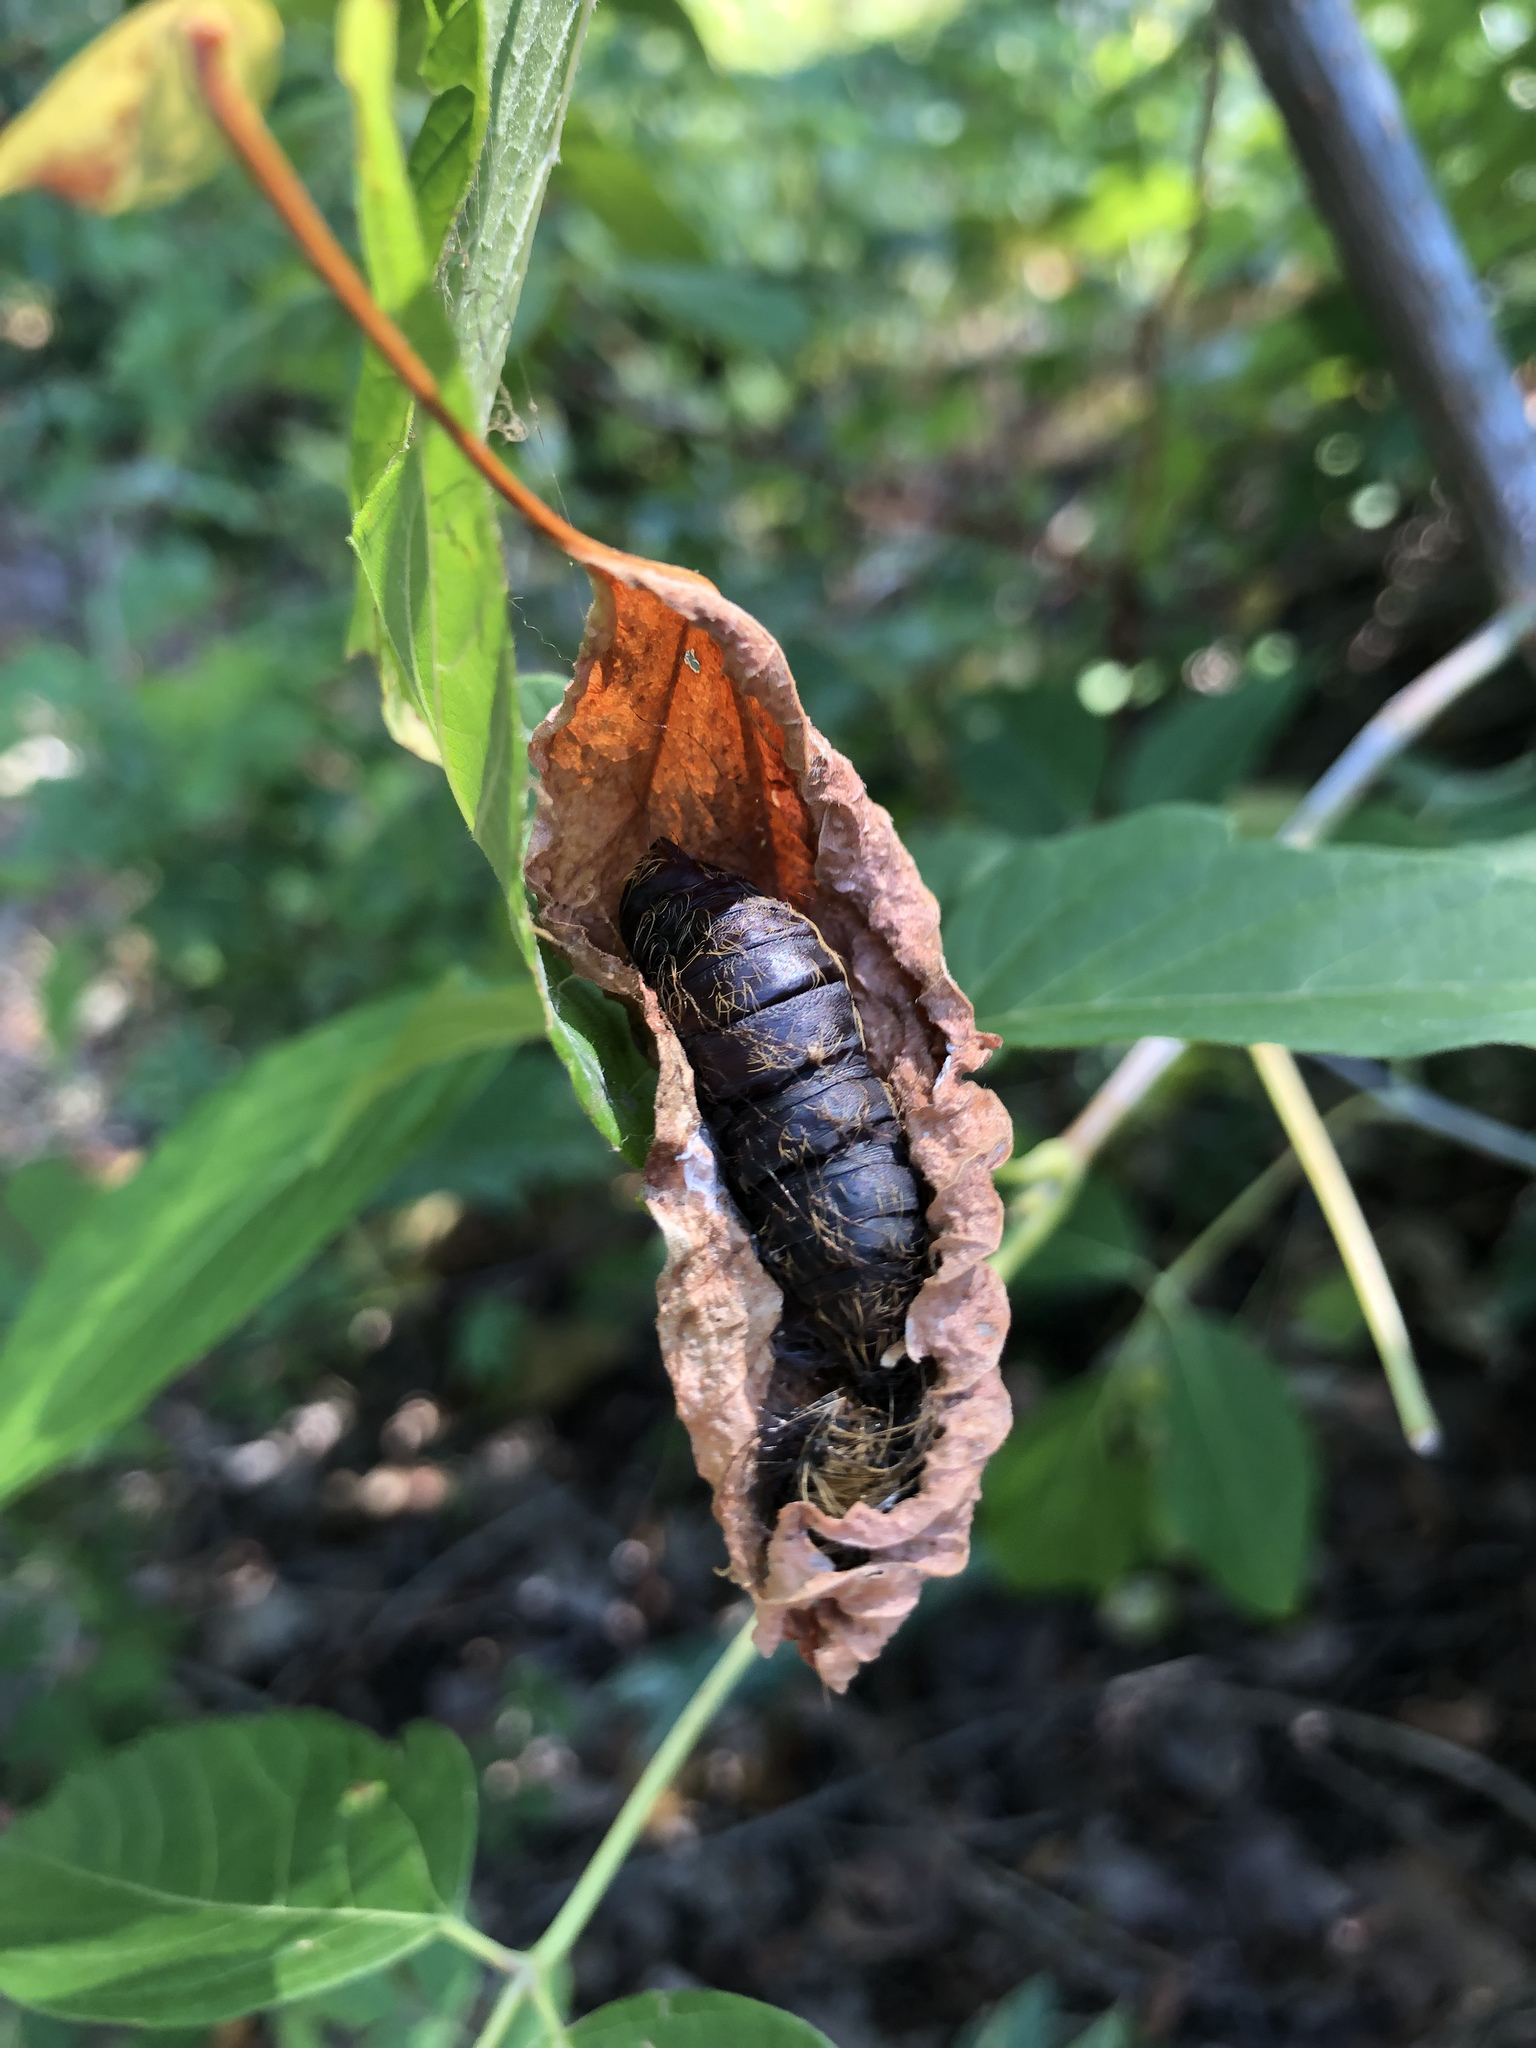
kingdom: Animalia
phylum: Arthropoda
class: Insecta
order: Lepidoptera
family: Erebidae
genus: Lymantria
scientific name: Lymantria dispar
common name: Gypsy moth
